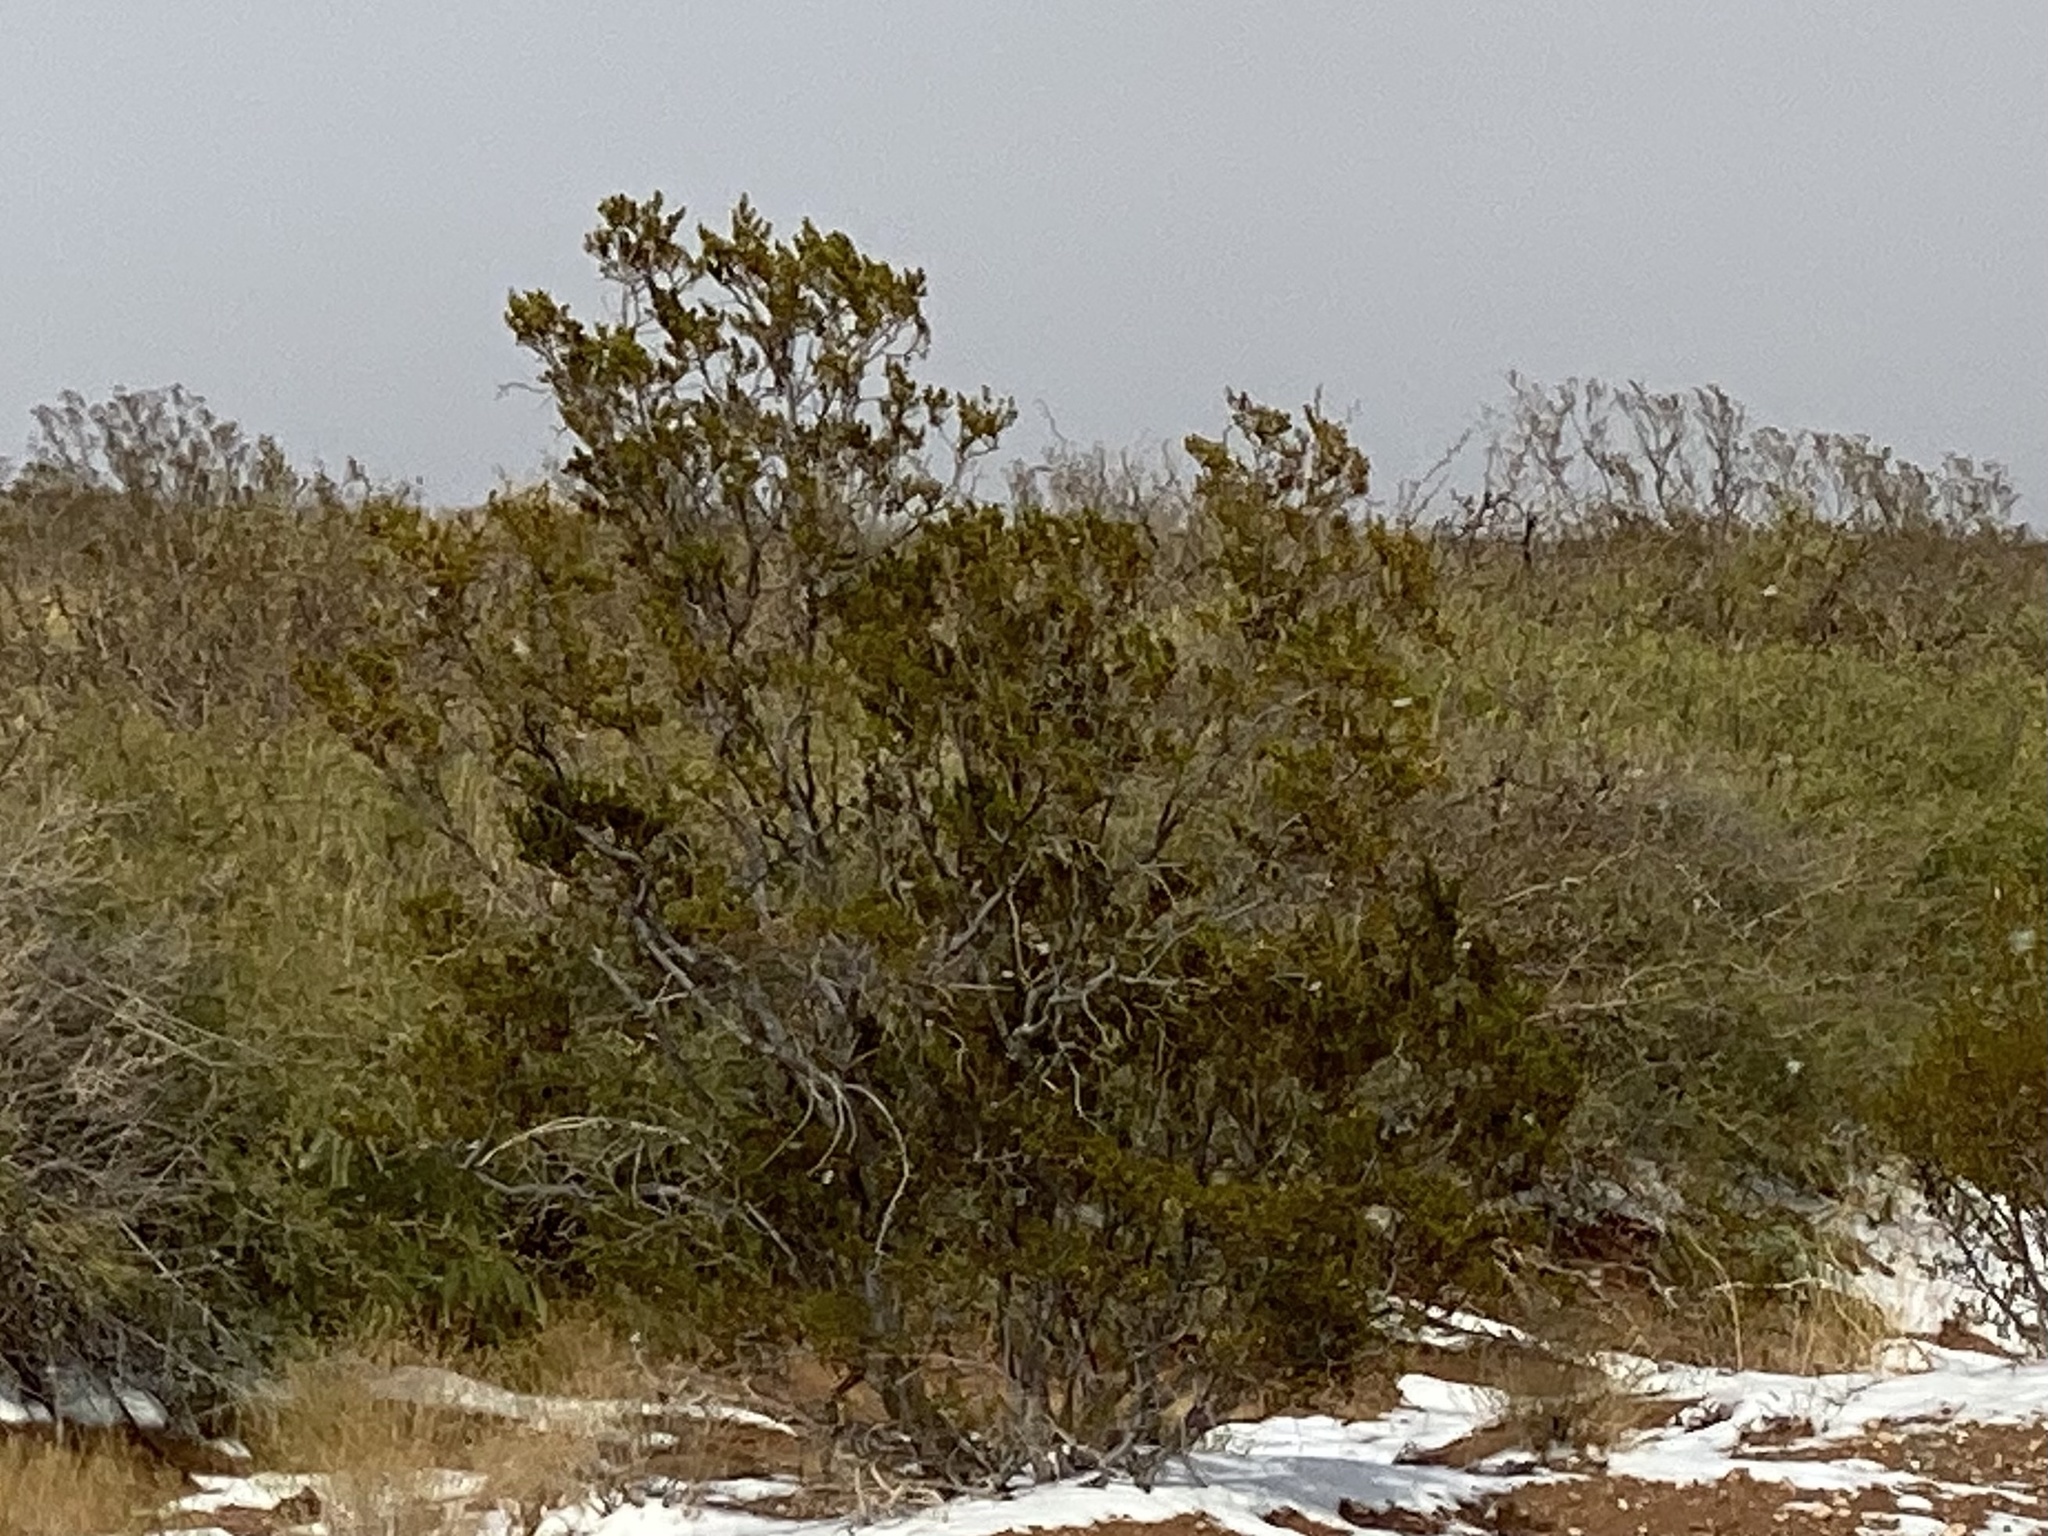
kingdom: Plantae
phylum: Tracheophyta
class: Magnoliopsida
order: Zygophyllales
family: Zygophyllaceae
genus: Larrea
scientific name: Larrea tridentata
